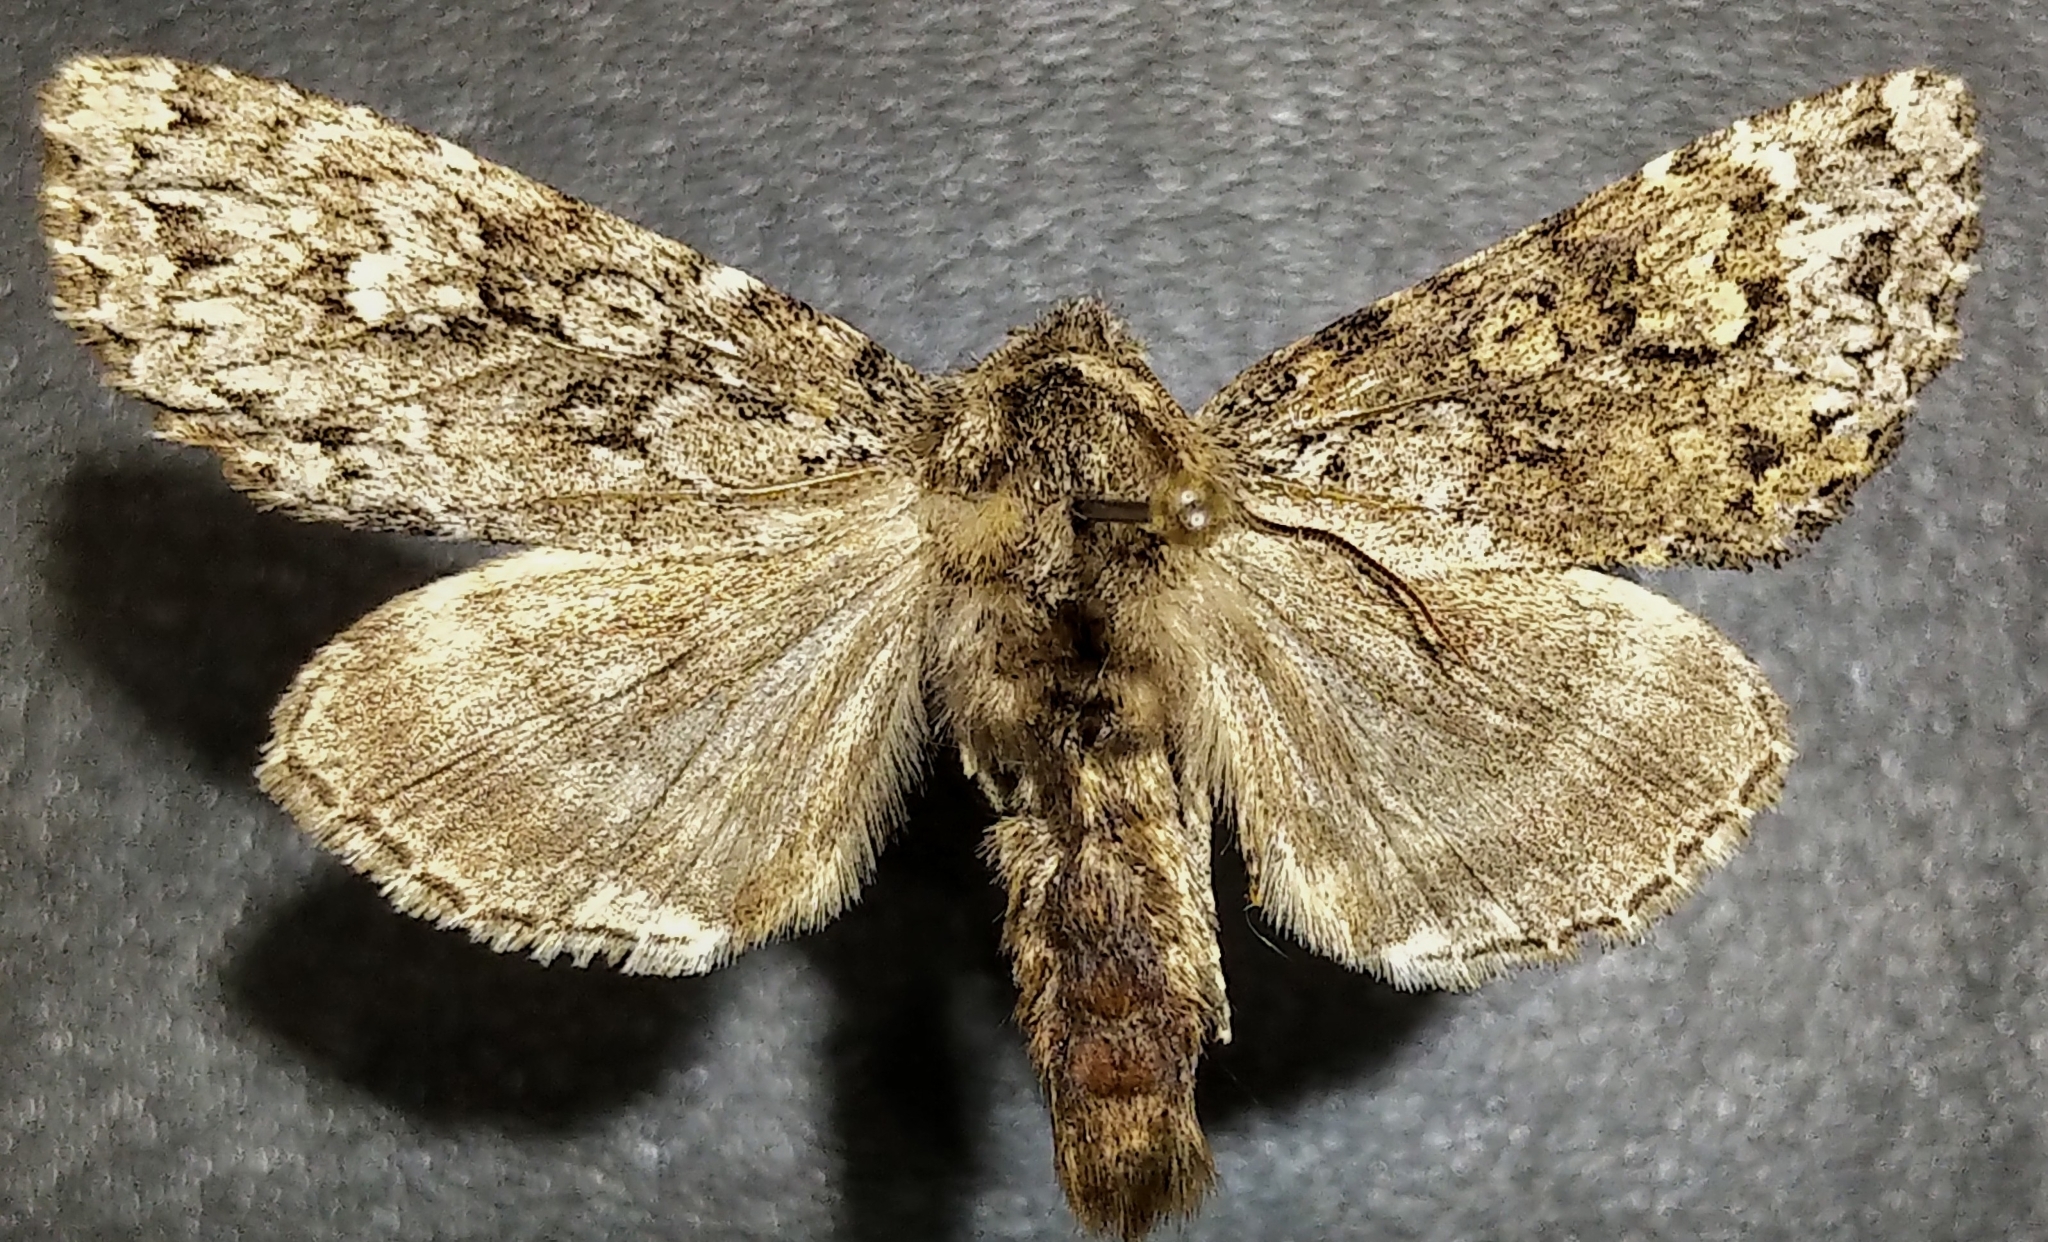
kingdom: Animalia
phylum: Arthropoda
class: Insecta
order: Lepidoptera
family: Noctuidae
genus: Polia
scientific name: Polia propodea
